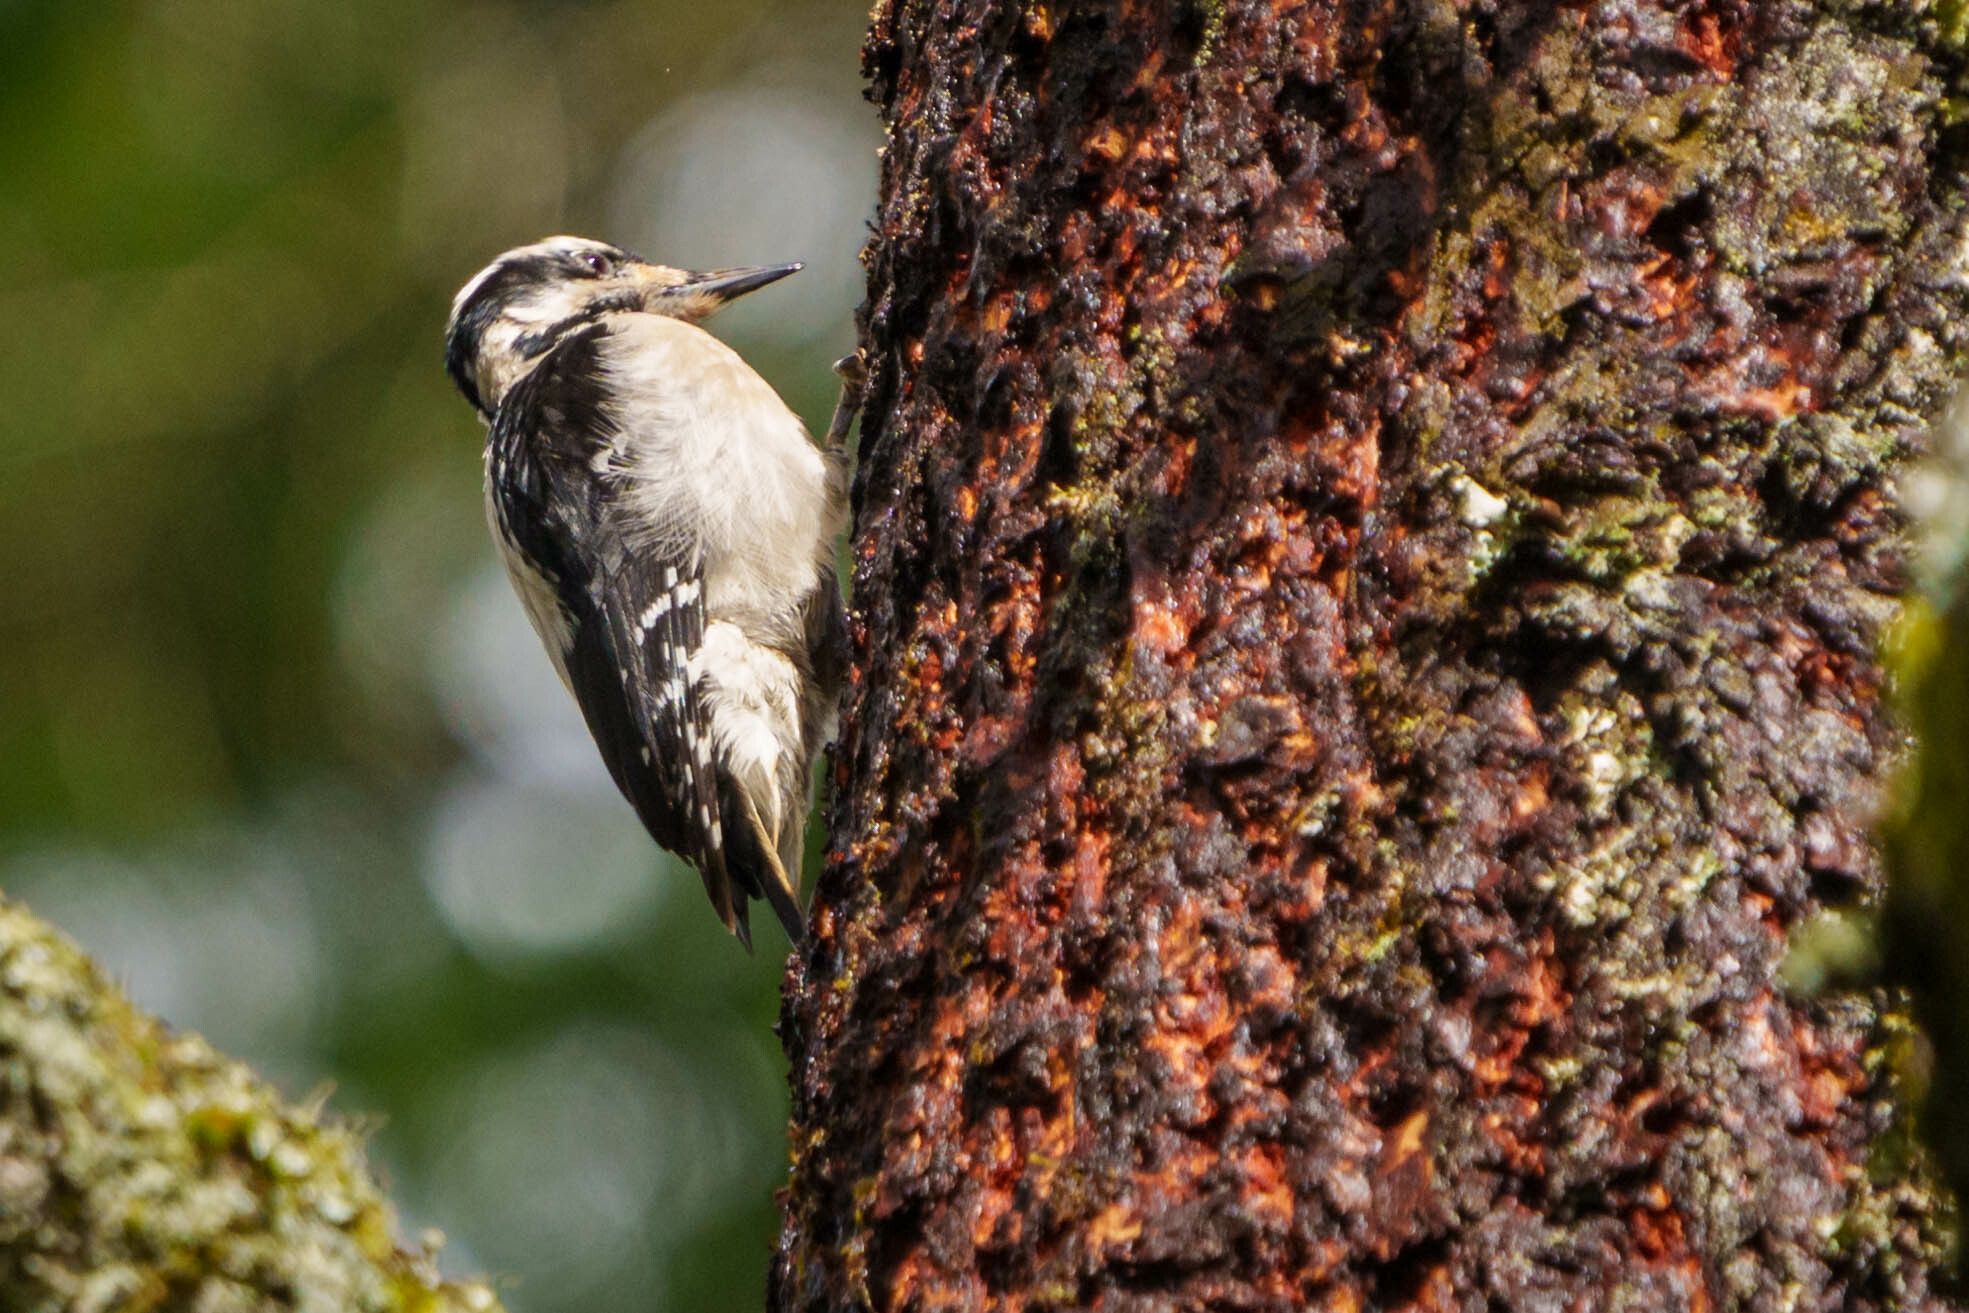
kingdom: Animalia
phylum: Chordata
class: Aves
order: Piciformes
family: Picidae
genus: Leuconotopicus
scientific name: Leuconotopicus villosus
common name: Hairy woodpecker
